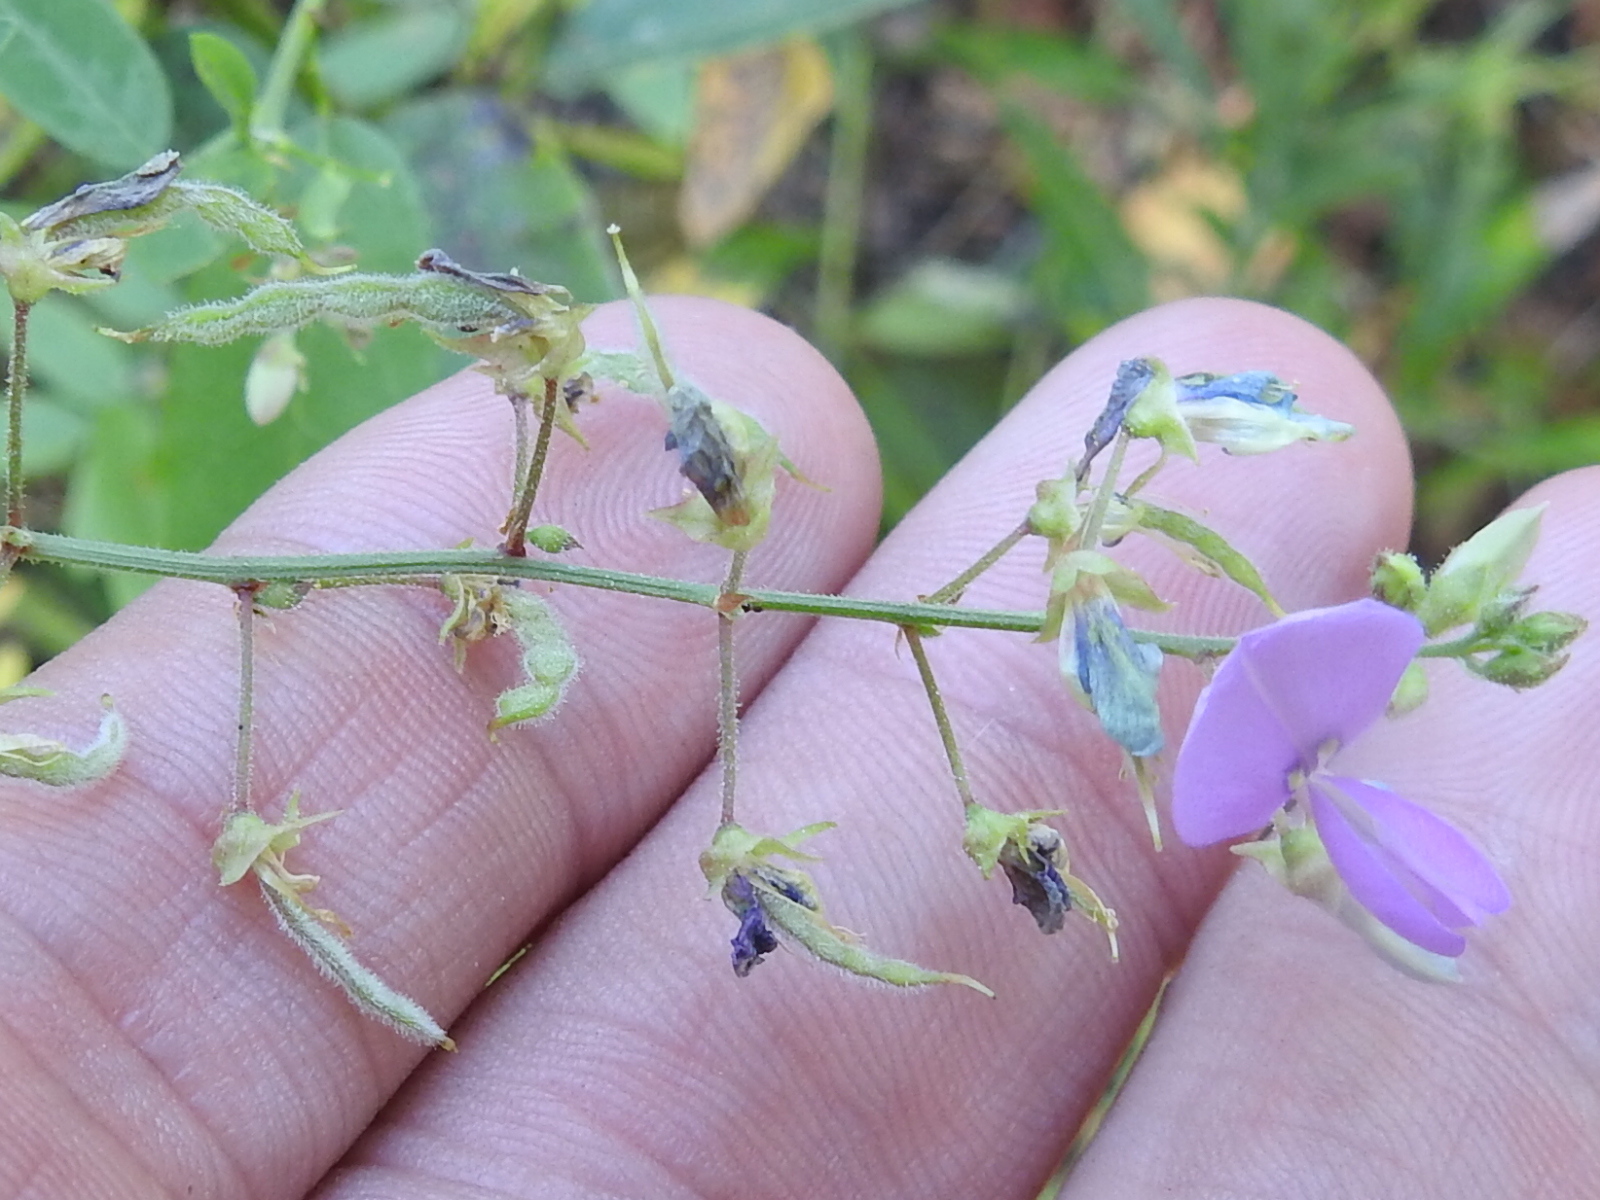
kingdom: Plantae
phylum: Tracheophyta
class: Magnoliopsida
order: Fabales
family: Fabaceae
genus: Desmodium
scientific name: Desmodium paniculatum
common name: Panicled tick-clover
